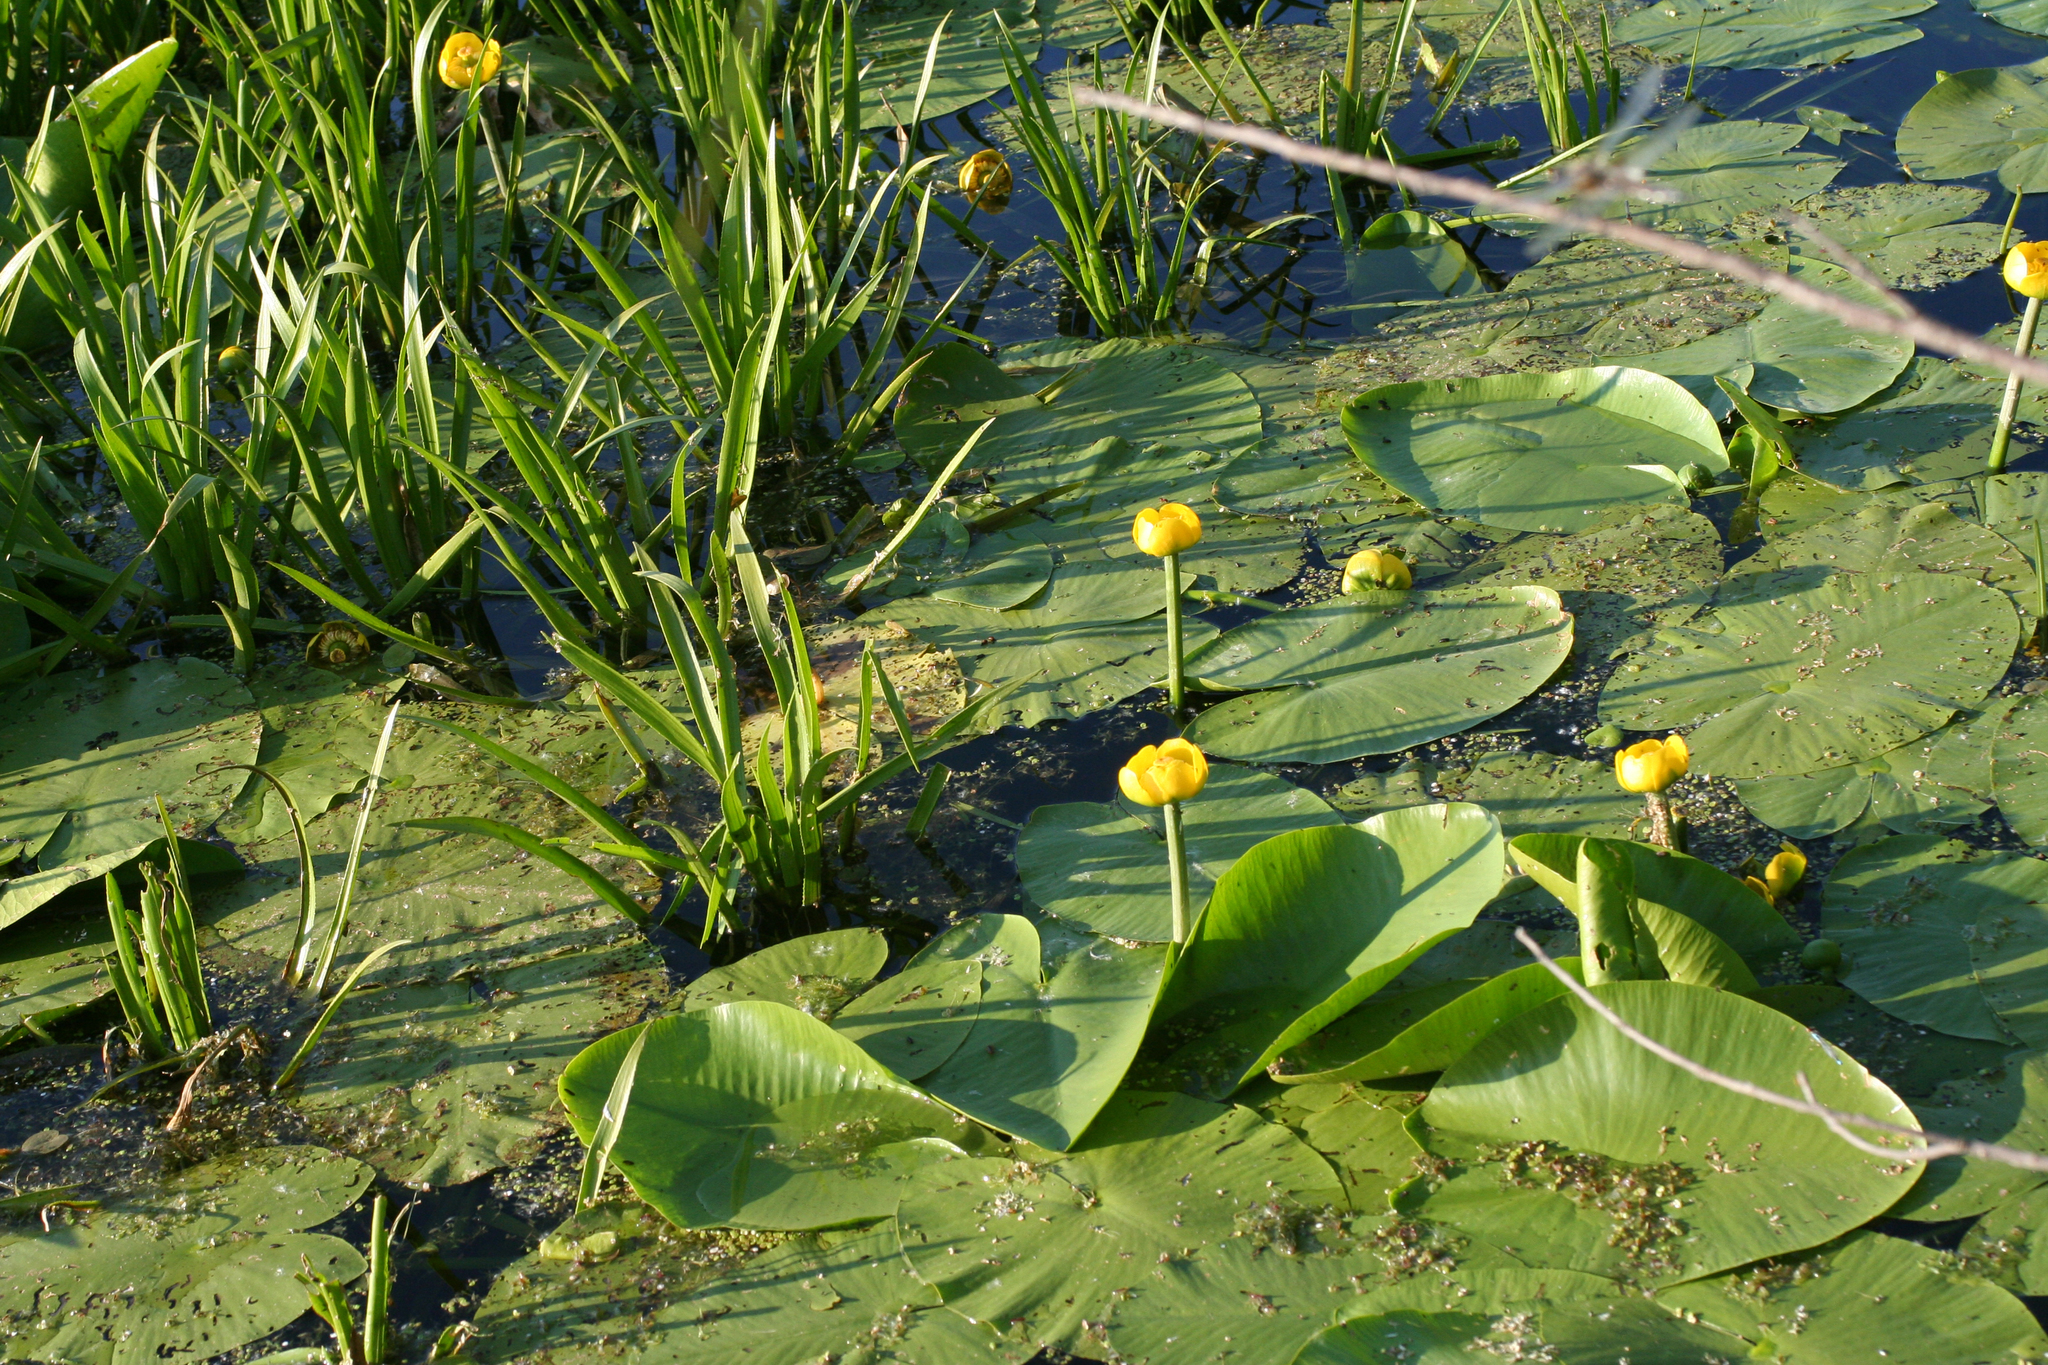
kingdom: Plantae
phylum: Tracheophyta
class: Magnoliopsida
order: Nymphaeales
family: Nymphaeaceae
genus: Nuphar
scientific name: Nuphar lutea
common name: Yellow water-lily
